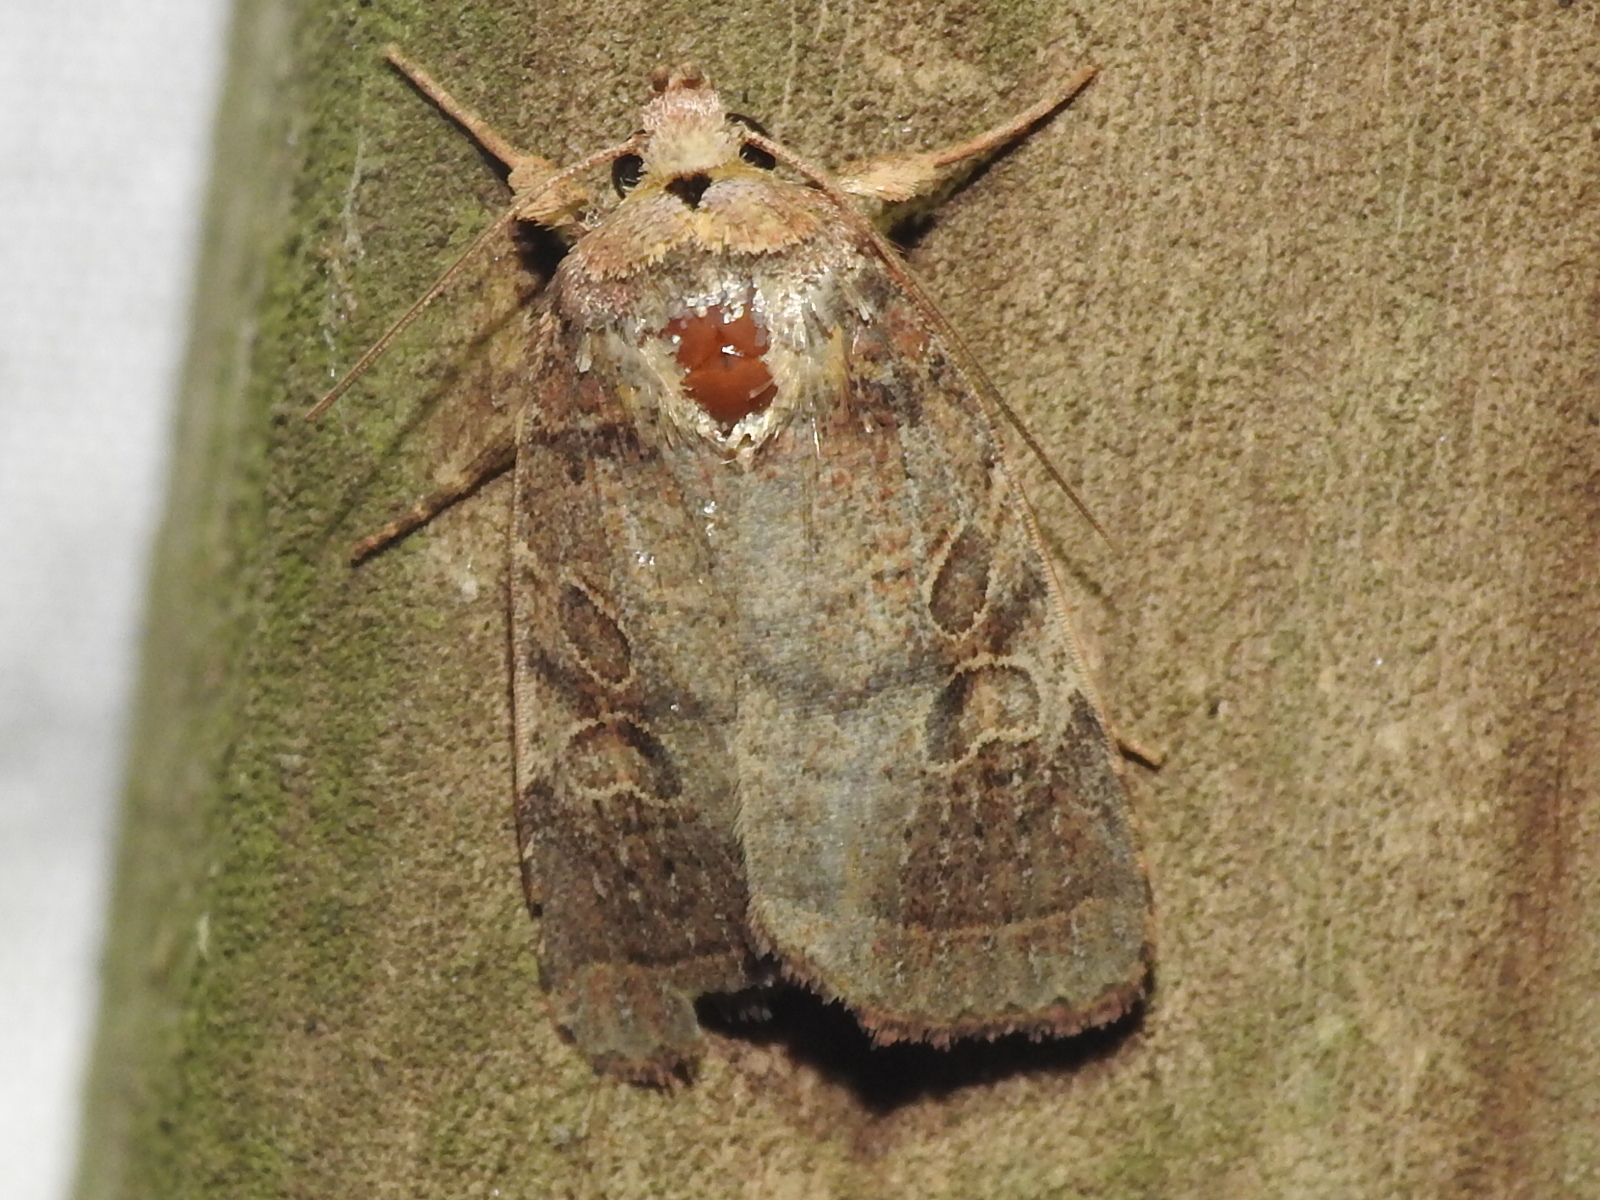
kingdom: Animalia
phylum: Arthropoda
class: Insecta
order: Lepidoptera
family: Noctuidae
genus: Orthodes
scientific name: Orthodes furtiva
